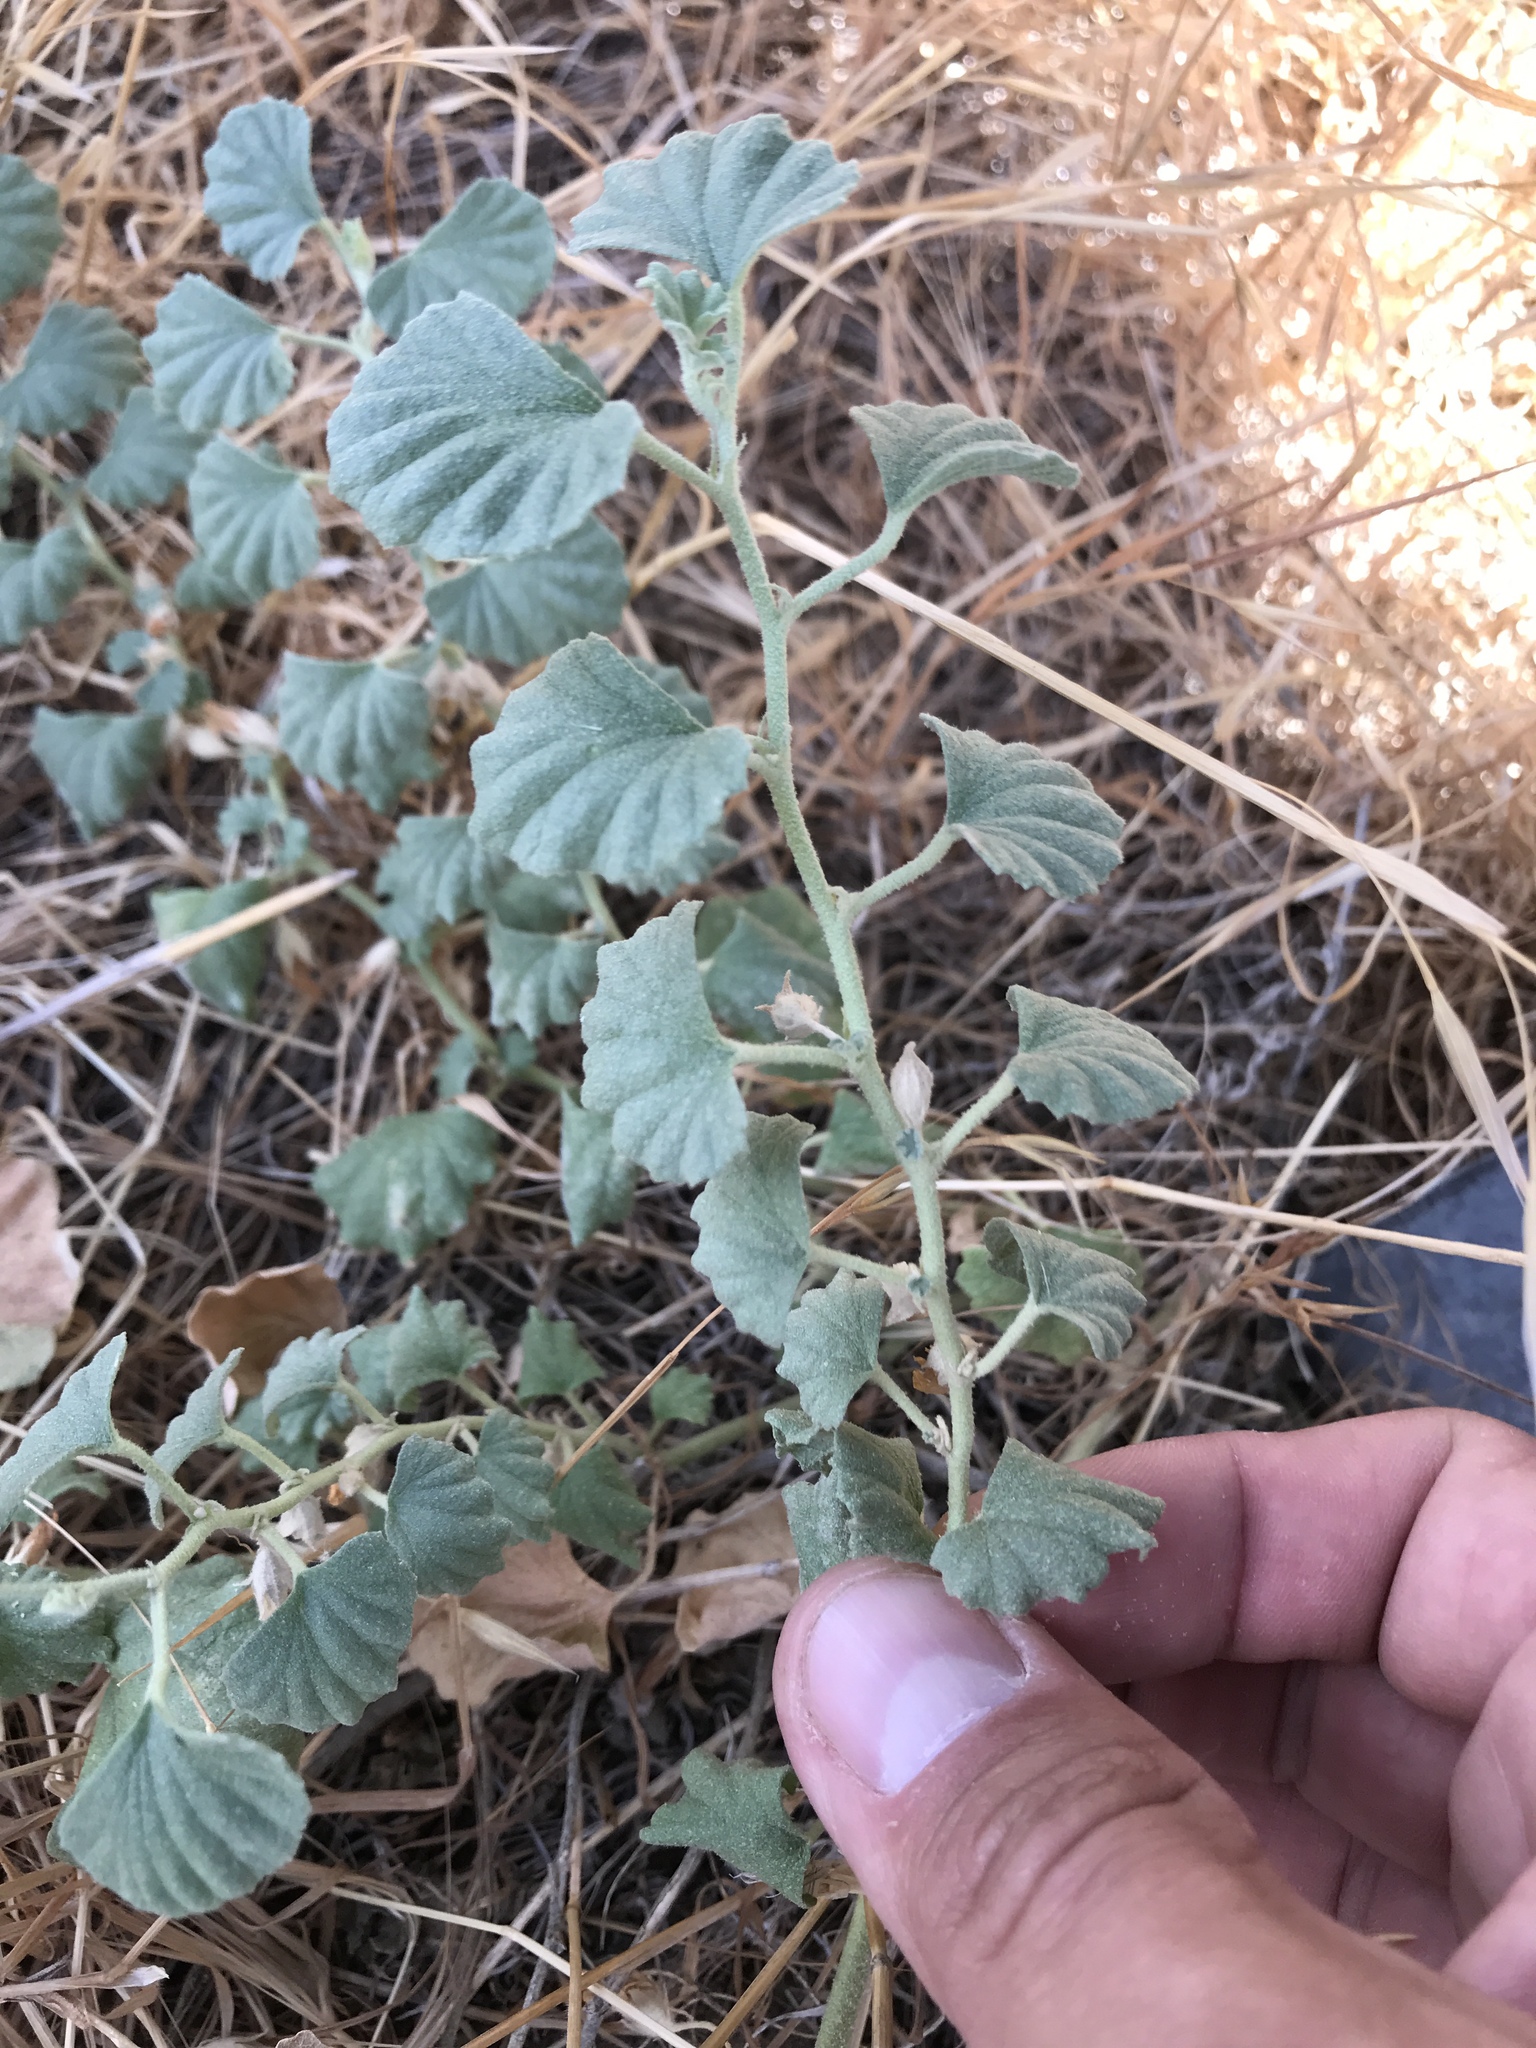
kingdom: Plantae
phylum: Tracheophyta
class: Magnoliopsida
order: Malvales
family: Malvaceae
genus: Malvella
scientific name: Malvella leprosa
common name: Alkali-mallow
